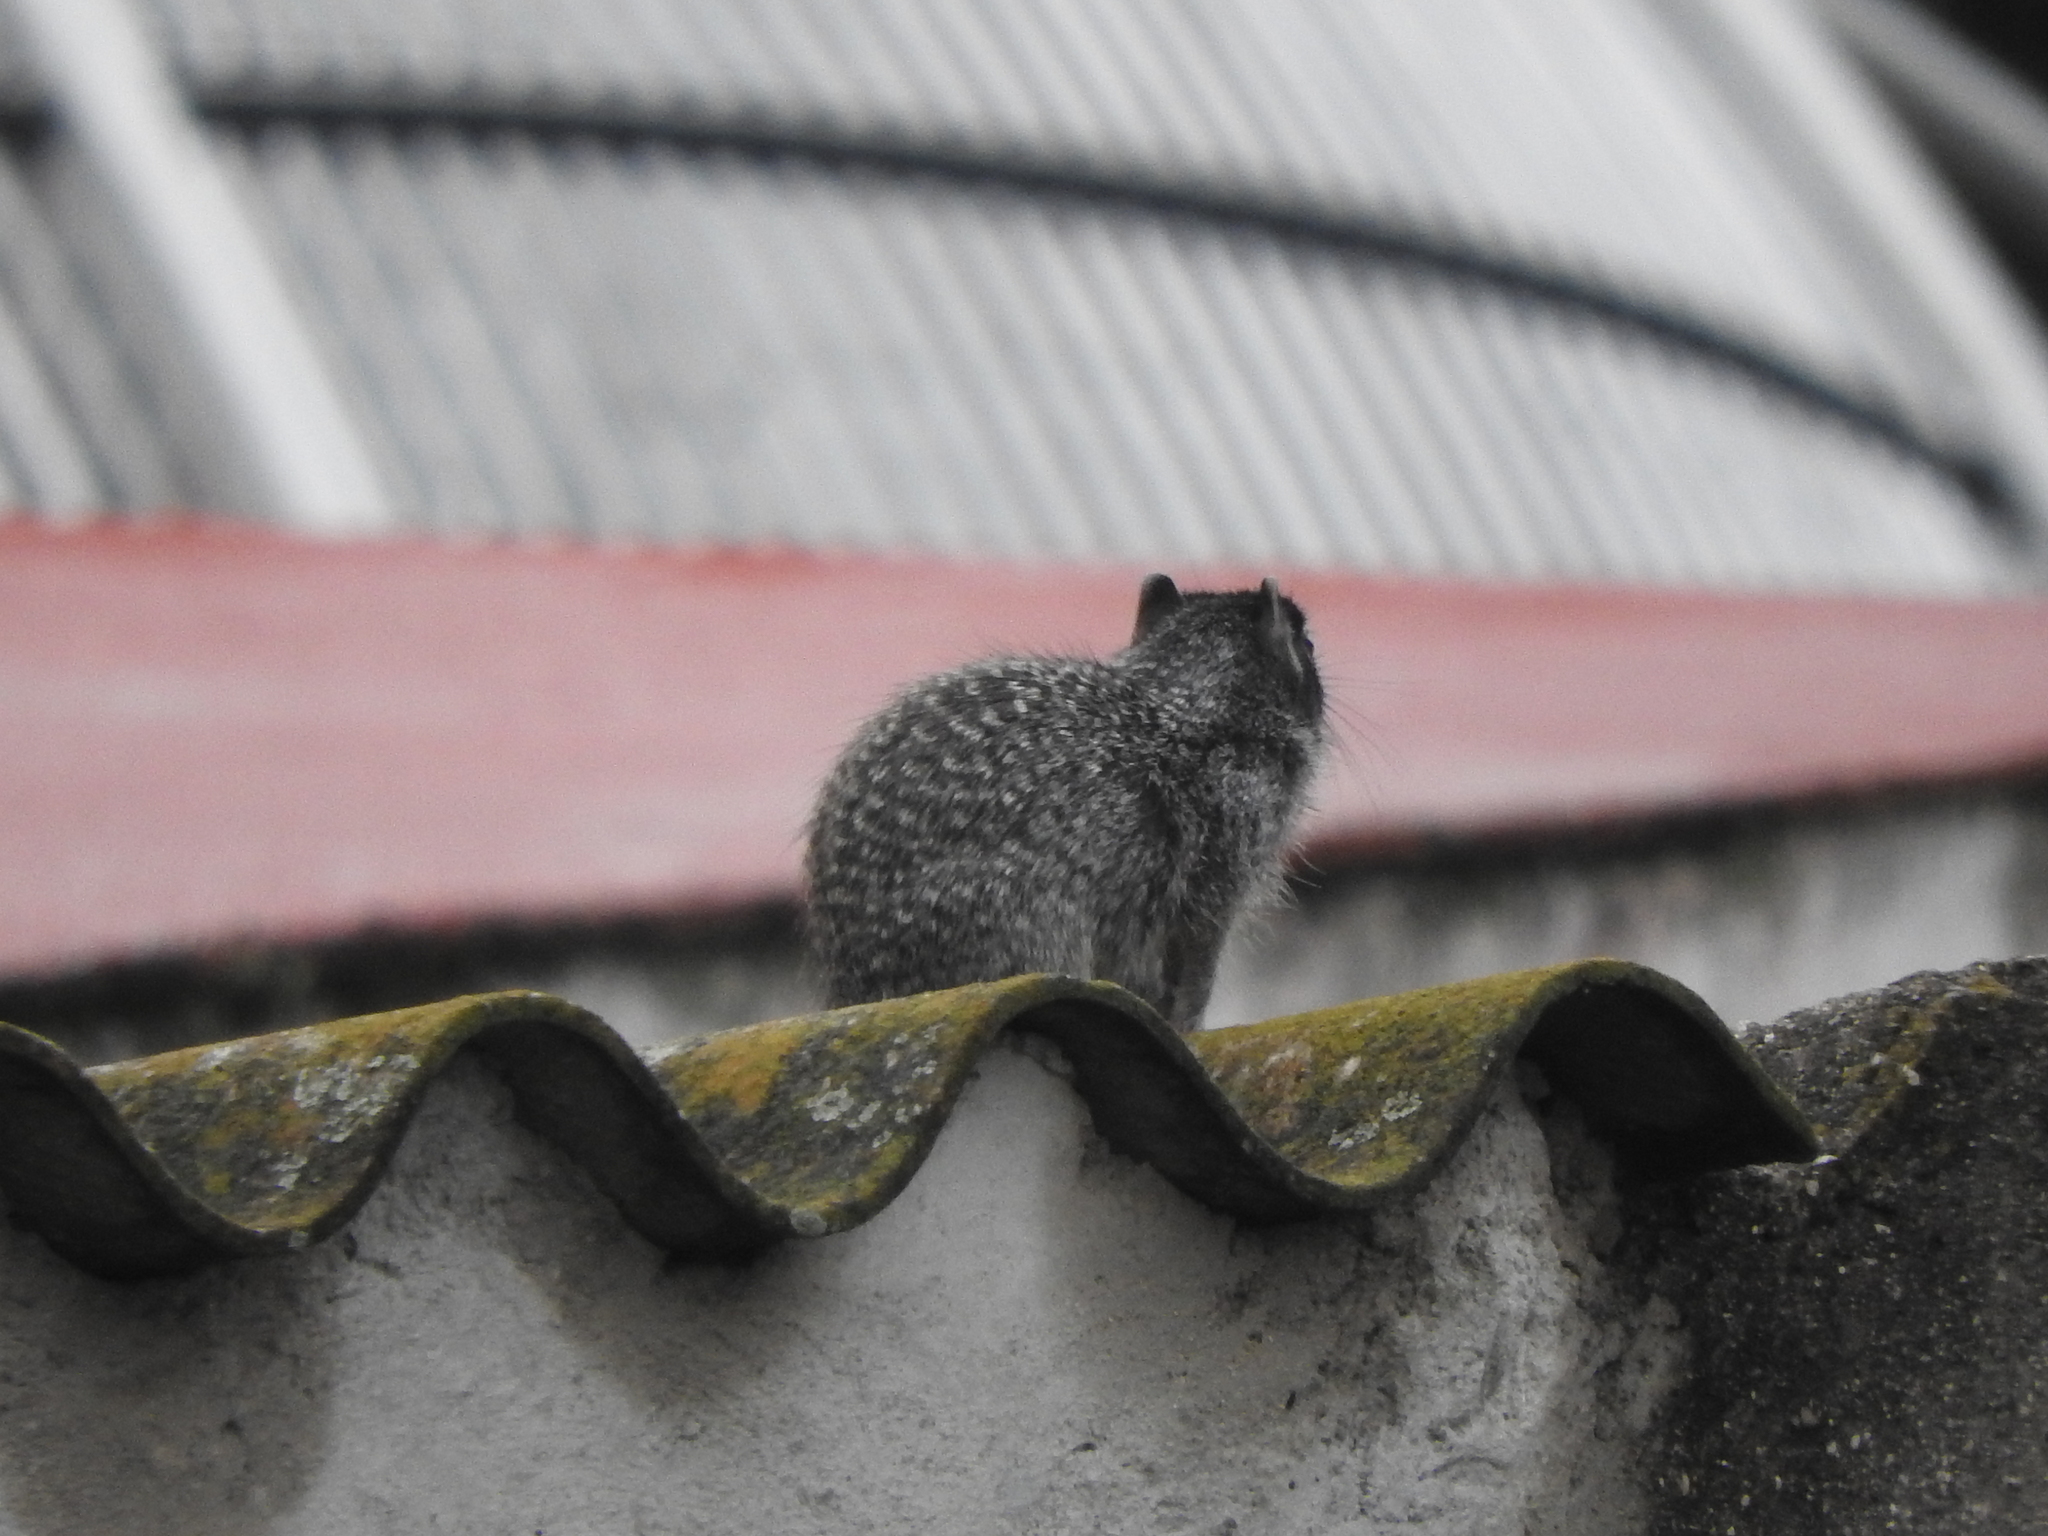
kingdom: Animalia
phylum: Chordata
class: Mammalia
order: Rodentia
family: Sciuridae
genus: Otospermophilus
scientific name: Otospermophilus variegatus
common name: Rock squirrel
